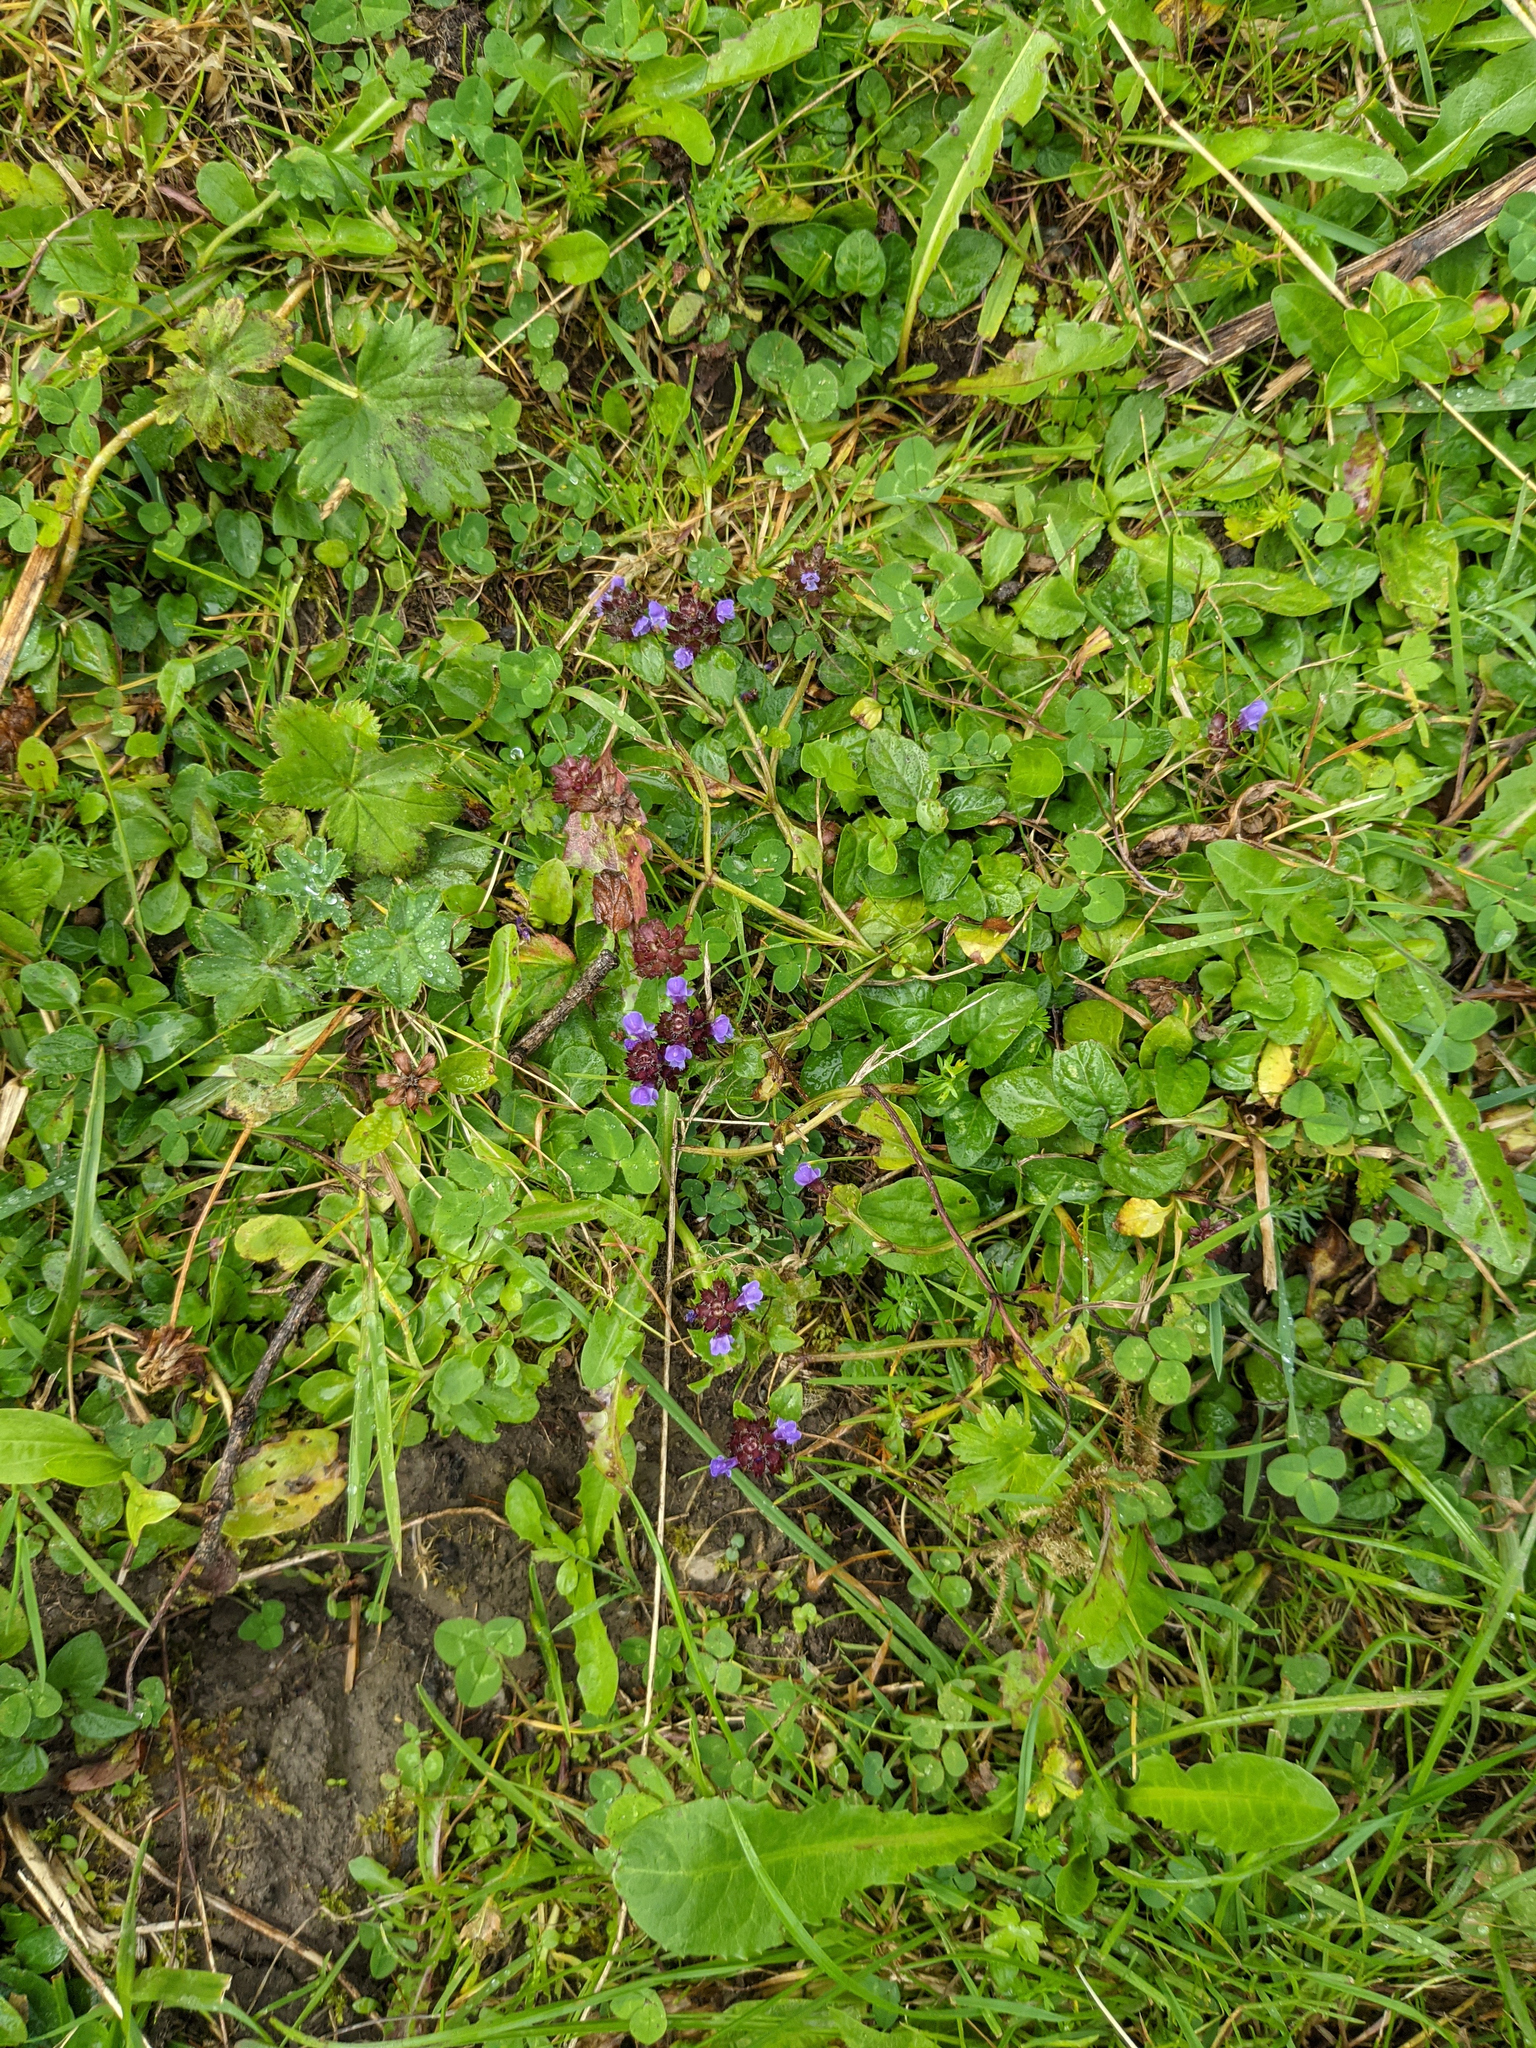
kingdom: Plantae
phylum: Tracheophyta
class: Magnoliopsida
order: Lamiales
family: Lamiaceae
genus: Prunella
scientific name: Prunella vulgaris
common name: Heal-all
